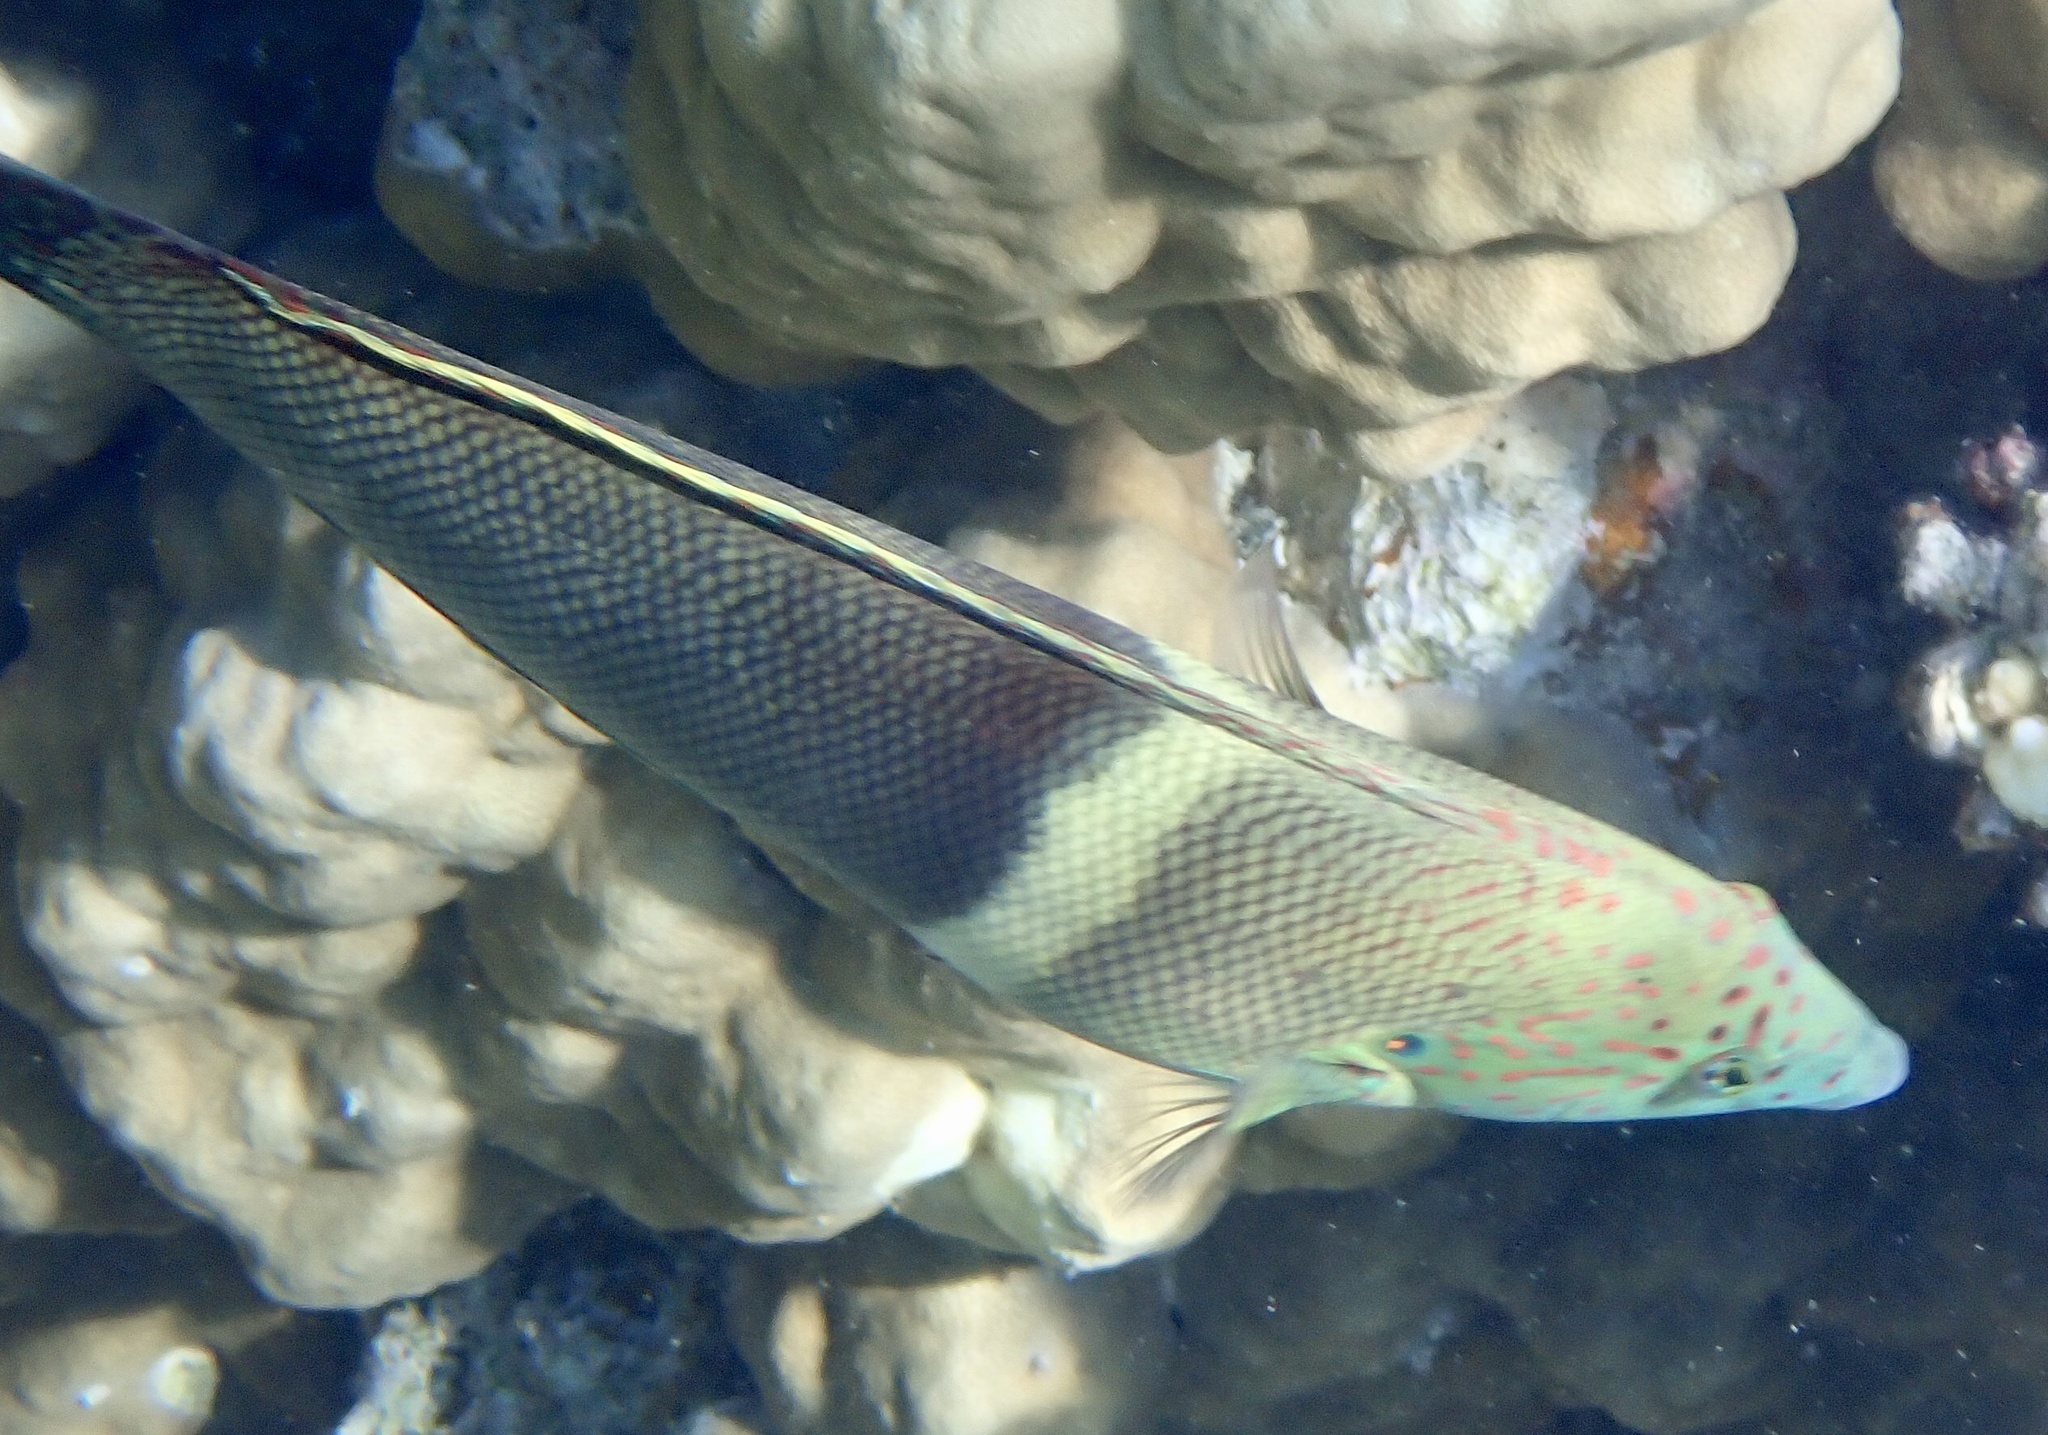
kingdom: Animalia
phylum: Chordata
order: Perciformes
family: Labridae
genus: Coris
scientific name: Coris aygula
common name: Clown coris
